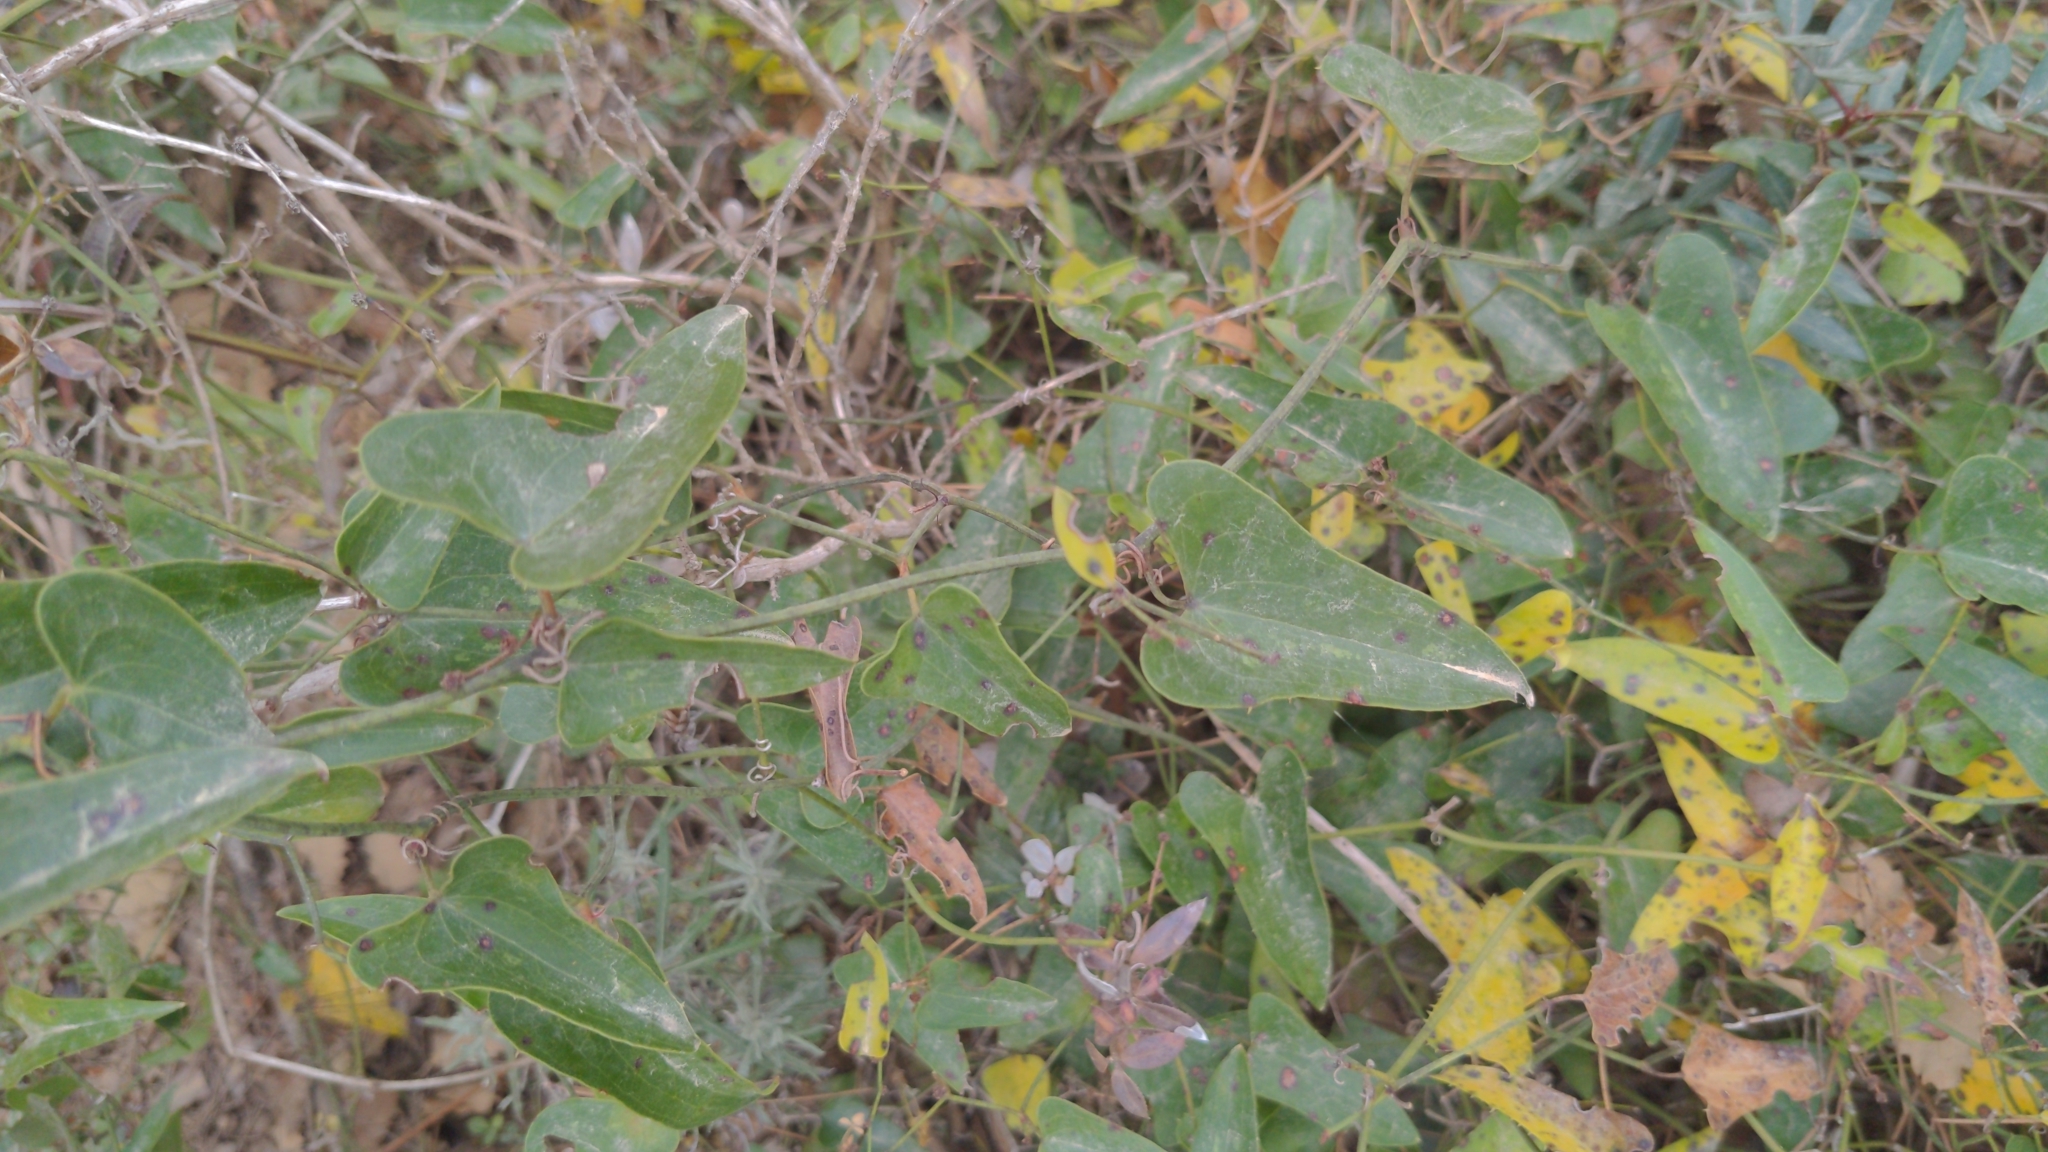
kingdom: Plantae
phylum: Tracheophyta
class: Liliopsida
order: Liliales
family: Smilacaceae
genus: Smilax
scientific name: Smilax aspera
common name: Common smilax
